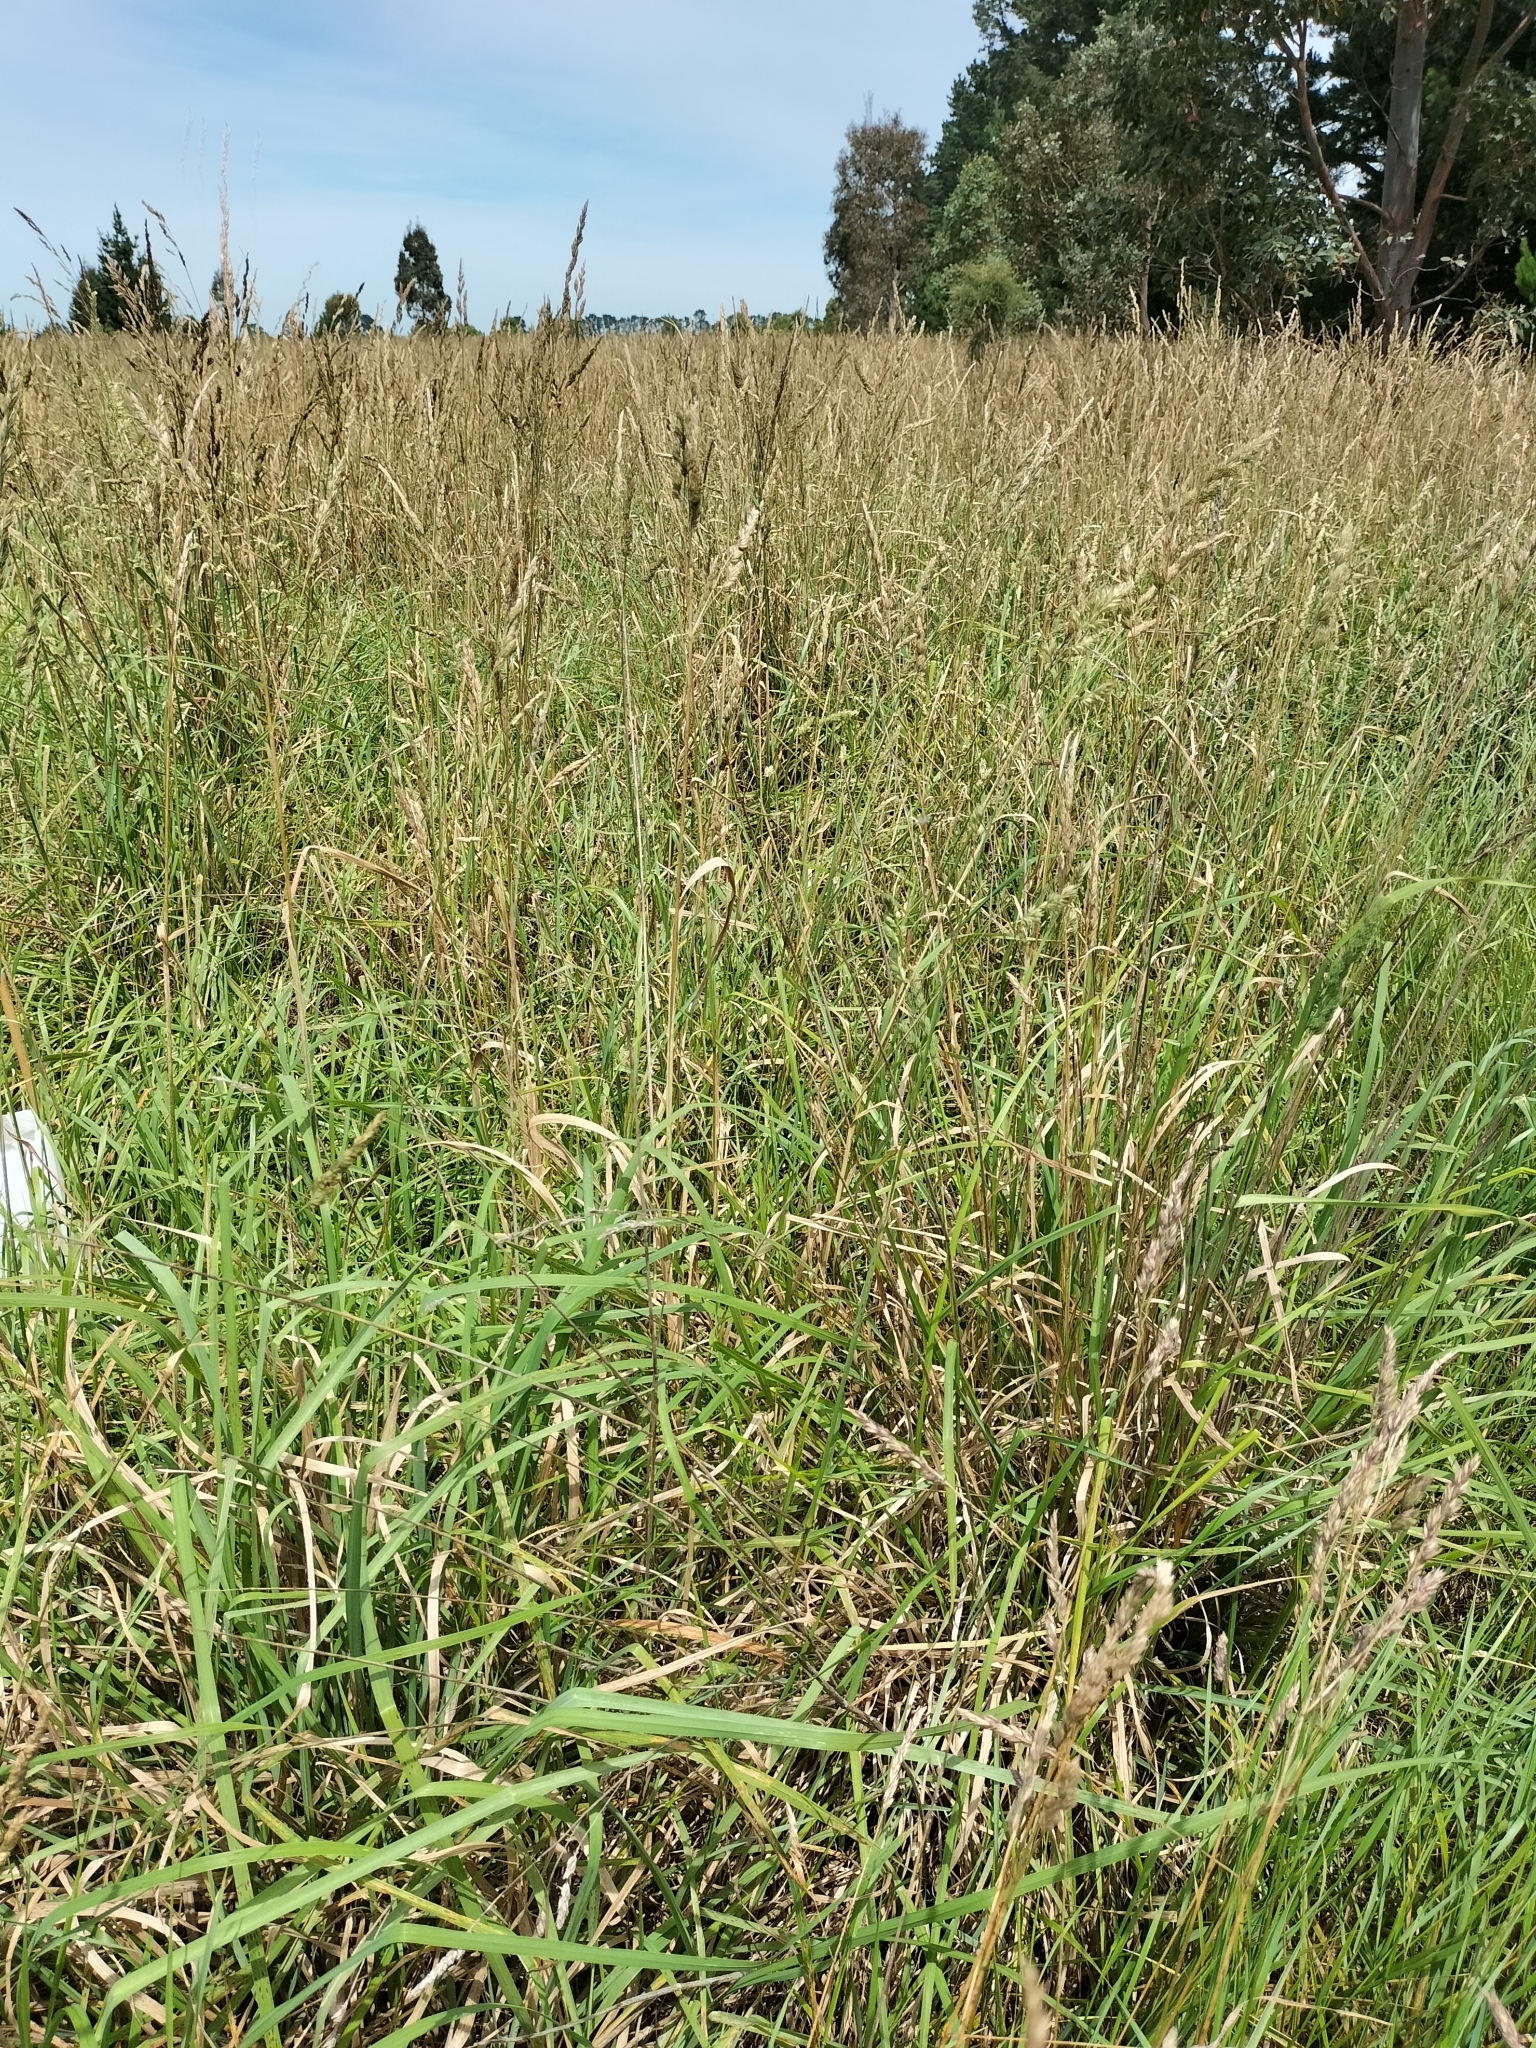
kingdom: Plantae
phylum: Tracheophyta
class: Liliopsida
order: Poales
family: Poaceae
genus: Dactylis
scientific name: Dactylis glomerata
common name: Orchardgrass
